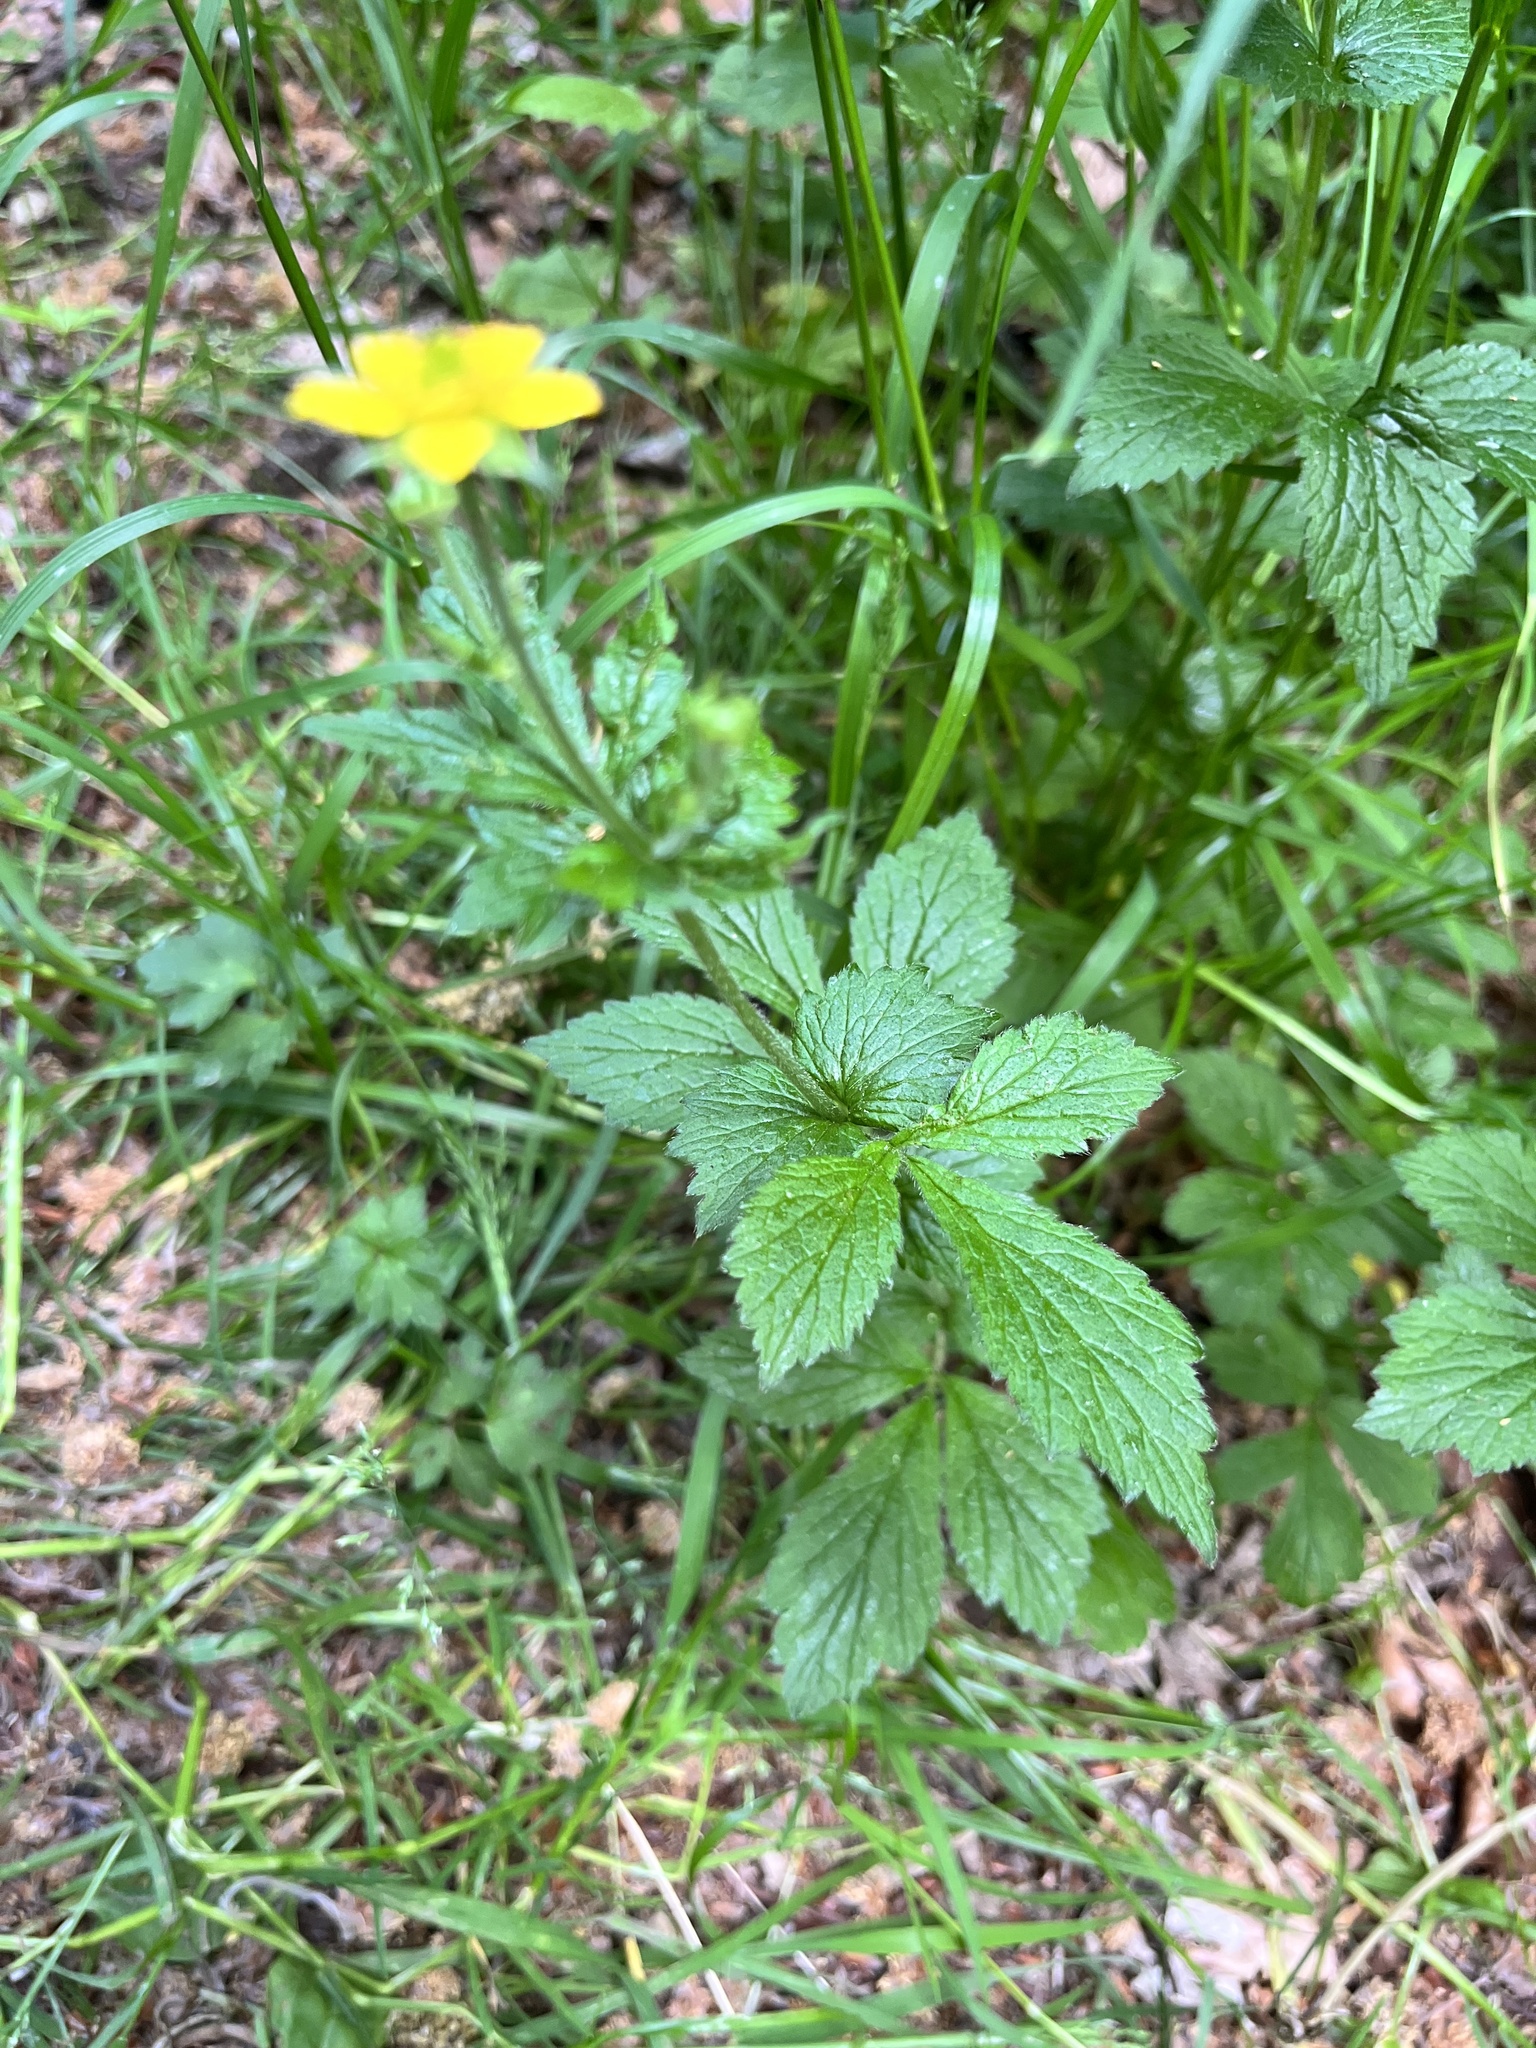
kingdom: Plantae
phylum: Tracheophyta
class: Magnoliopsida
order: Rosales
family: Rosaceae
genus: Geum
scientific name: Geum urbanum
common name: Wood avens
